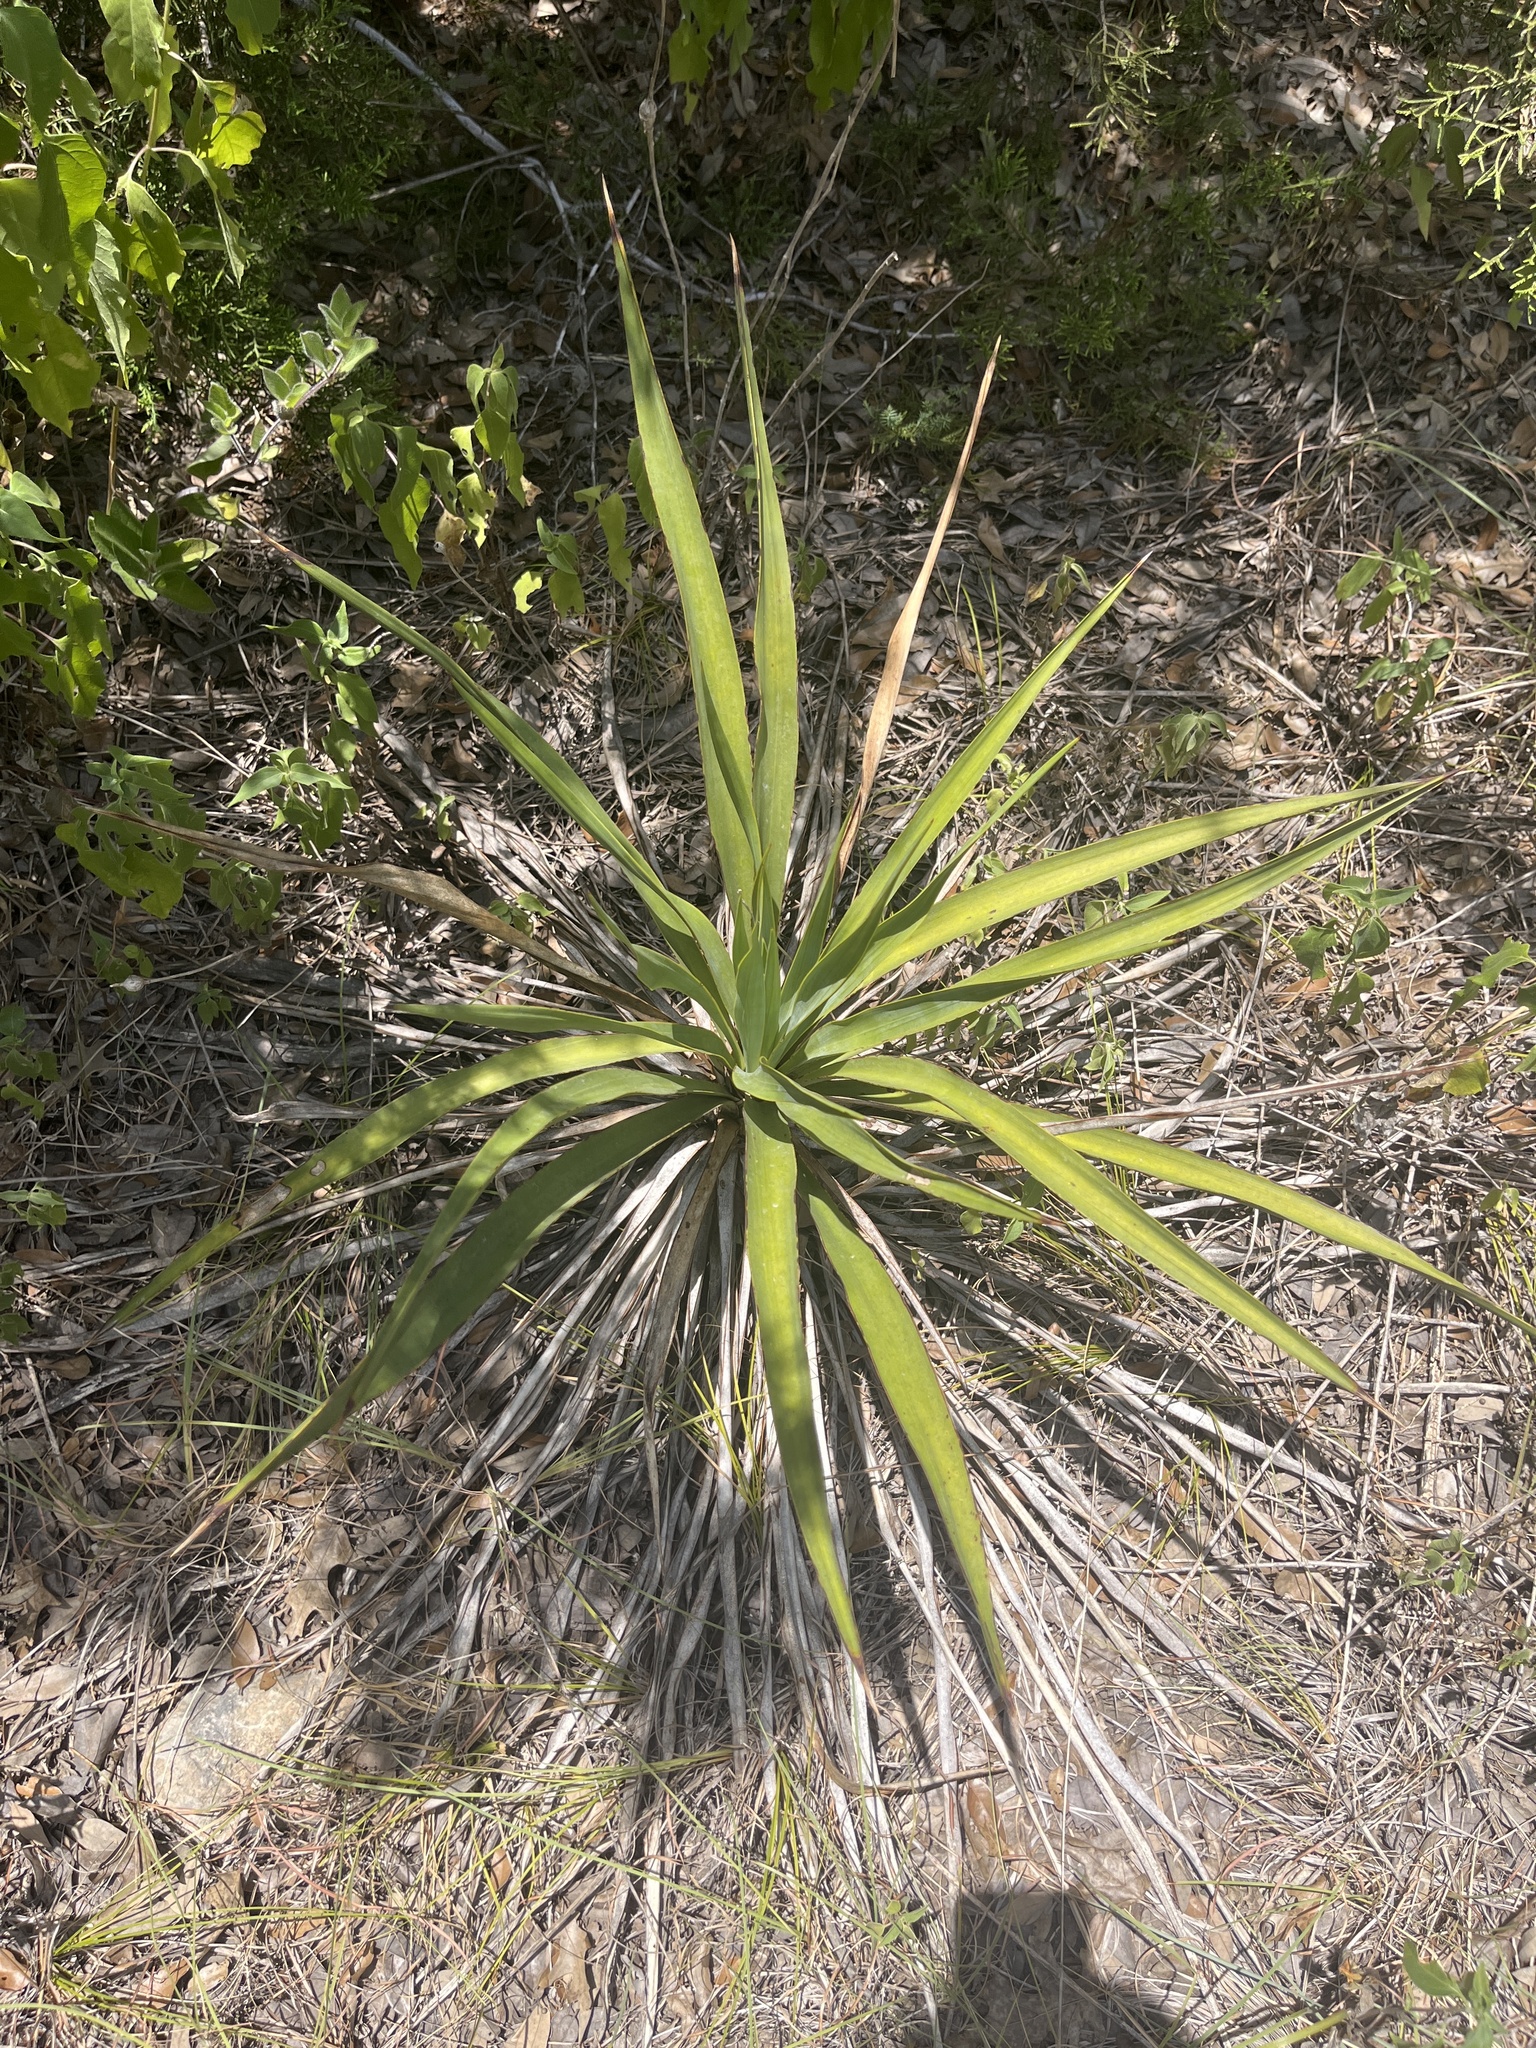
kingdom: Plantae
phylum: Tracheophyta
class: Liliopsida
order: Asparagales
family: Asparagaceae
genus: Yucca
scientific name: Yucca rupicola
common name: Twisted-leaf spanish-dagger
